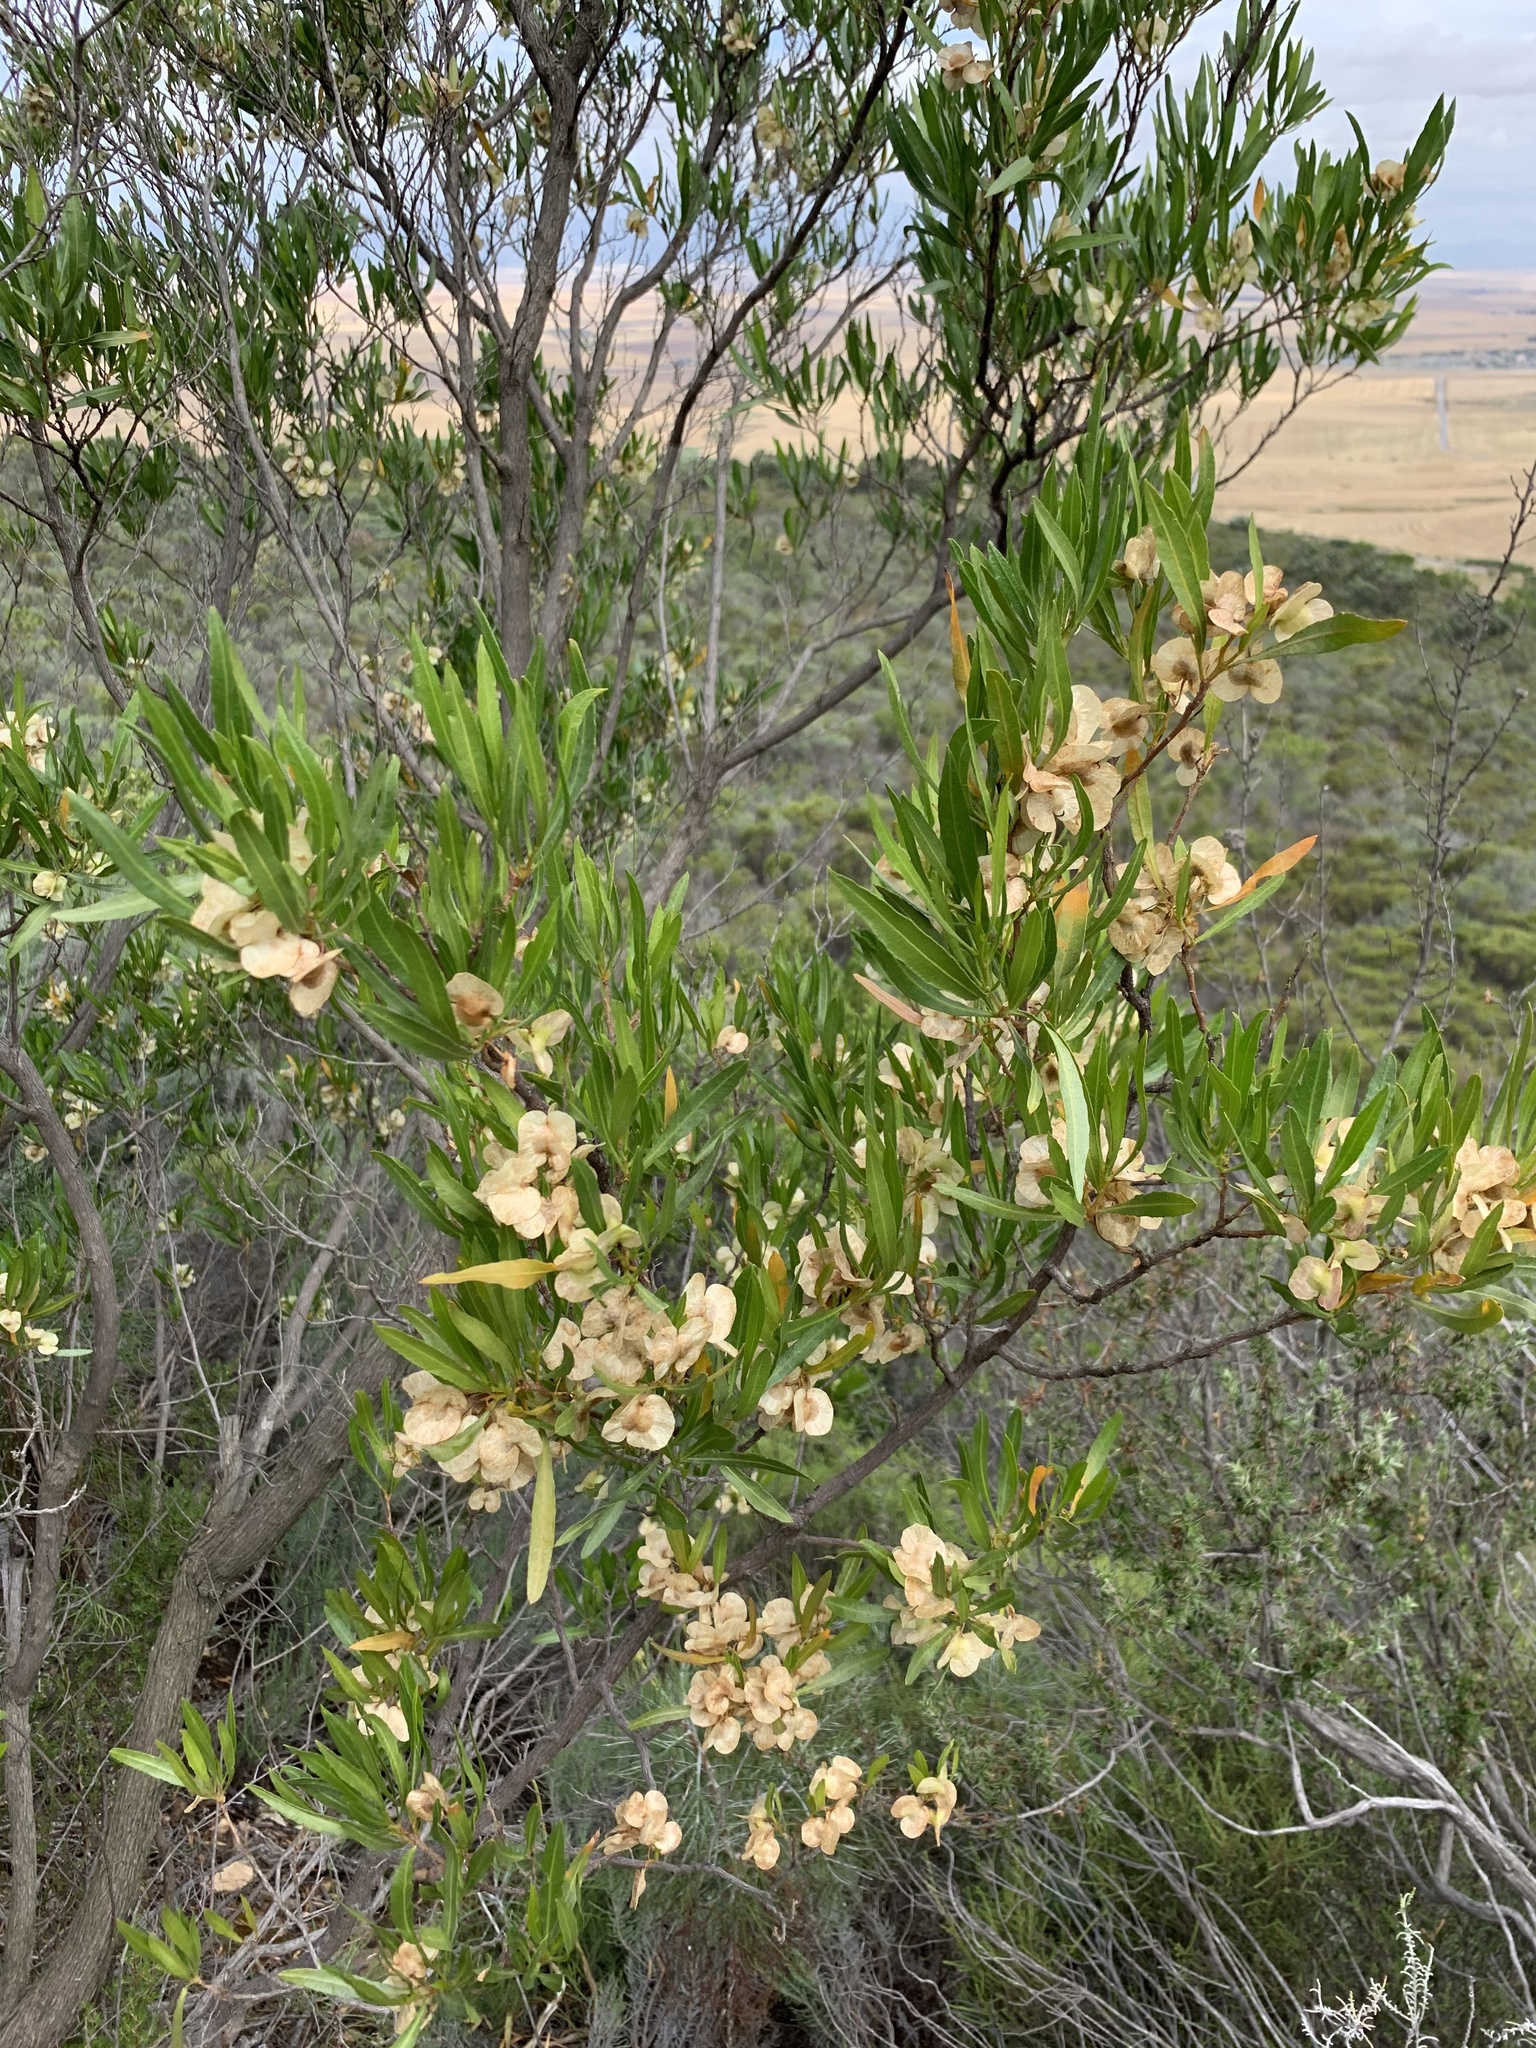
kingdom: Plantae
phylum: Tracheophyta
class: Magnoliopsida
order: Sapindales
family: Sapindaceae
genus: Dodonaea
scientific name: Dodonaea viscosa
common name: Hopbush
